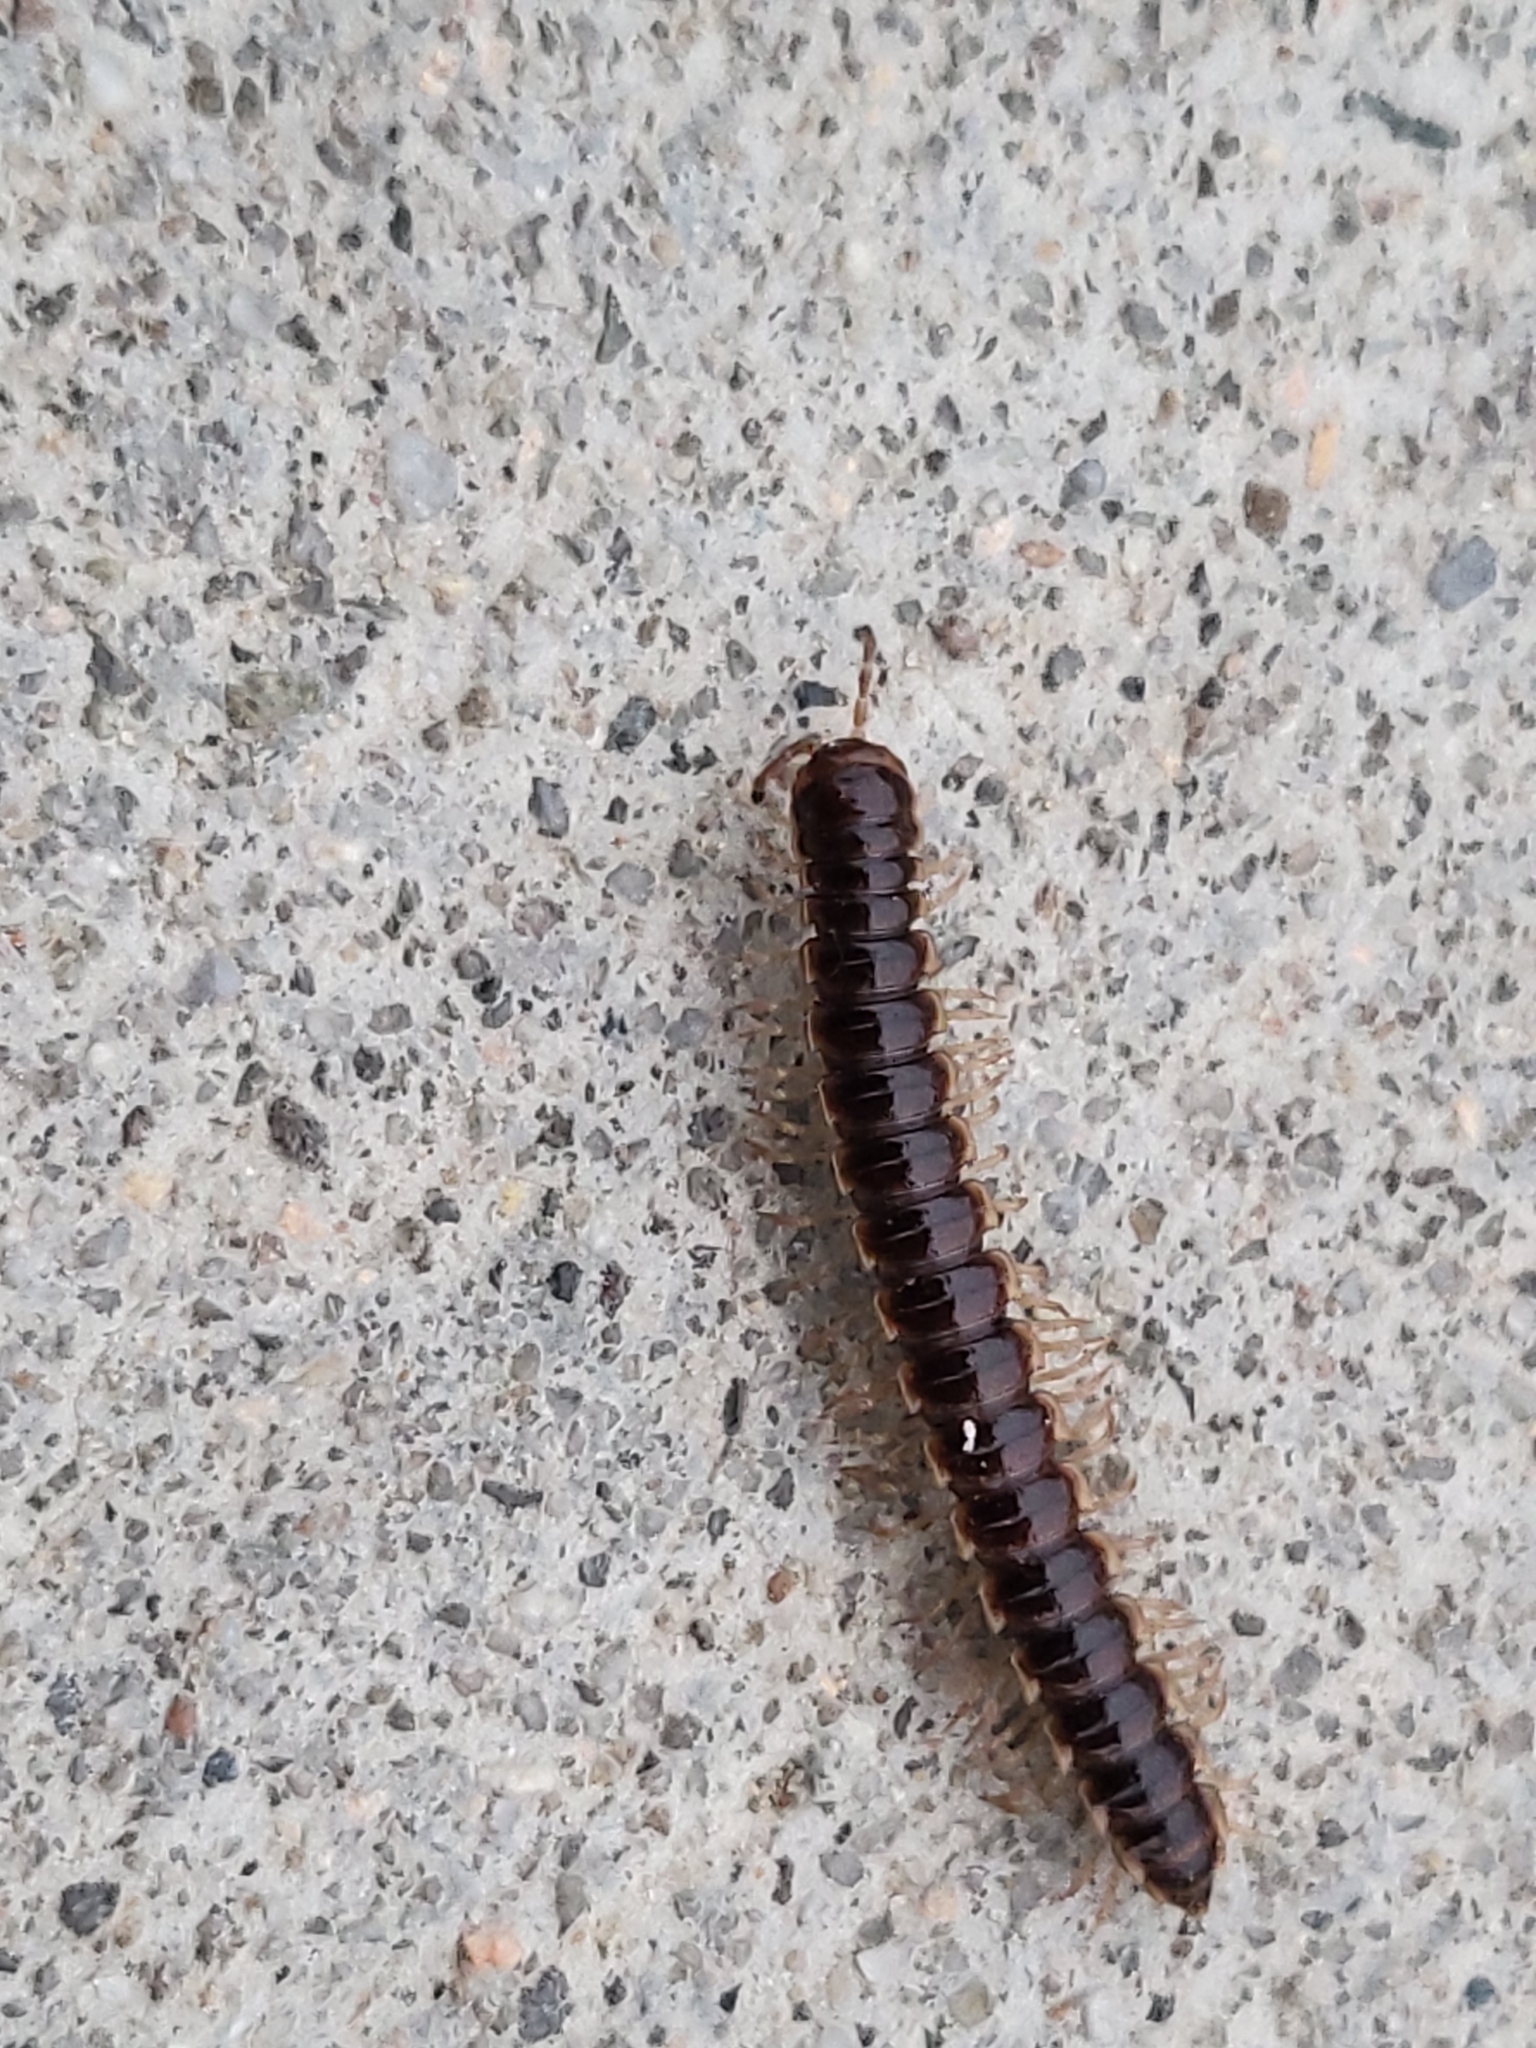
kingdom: Animalia
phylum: Arthropoda
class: Diplopoda
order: Polydesmida
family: Paradoxosomatidae
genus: Oxidus
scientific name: Oxidus gracilis
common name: Greenhouse millipede
